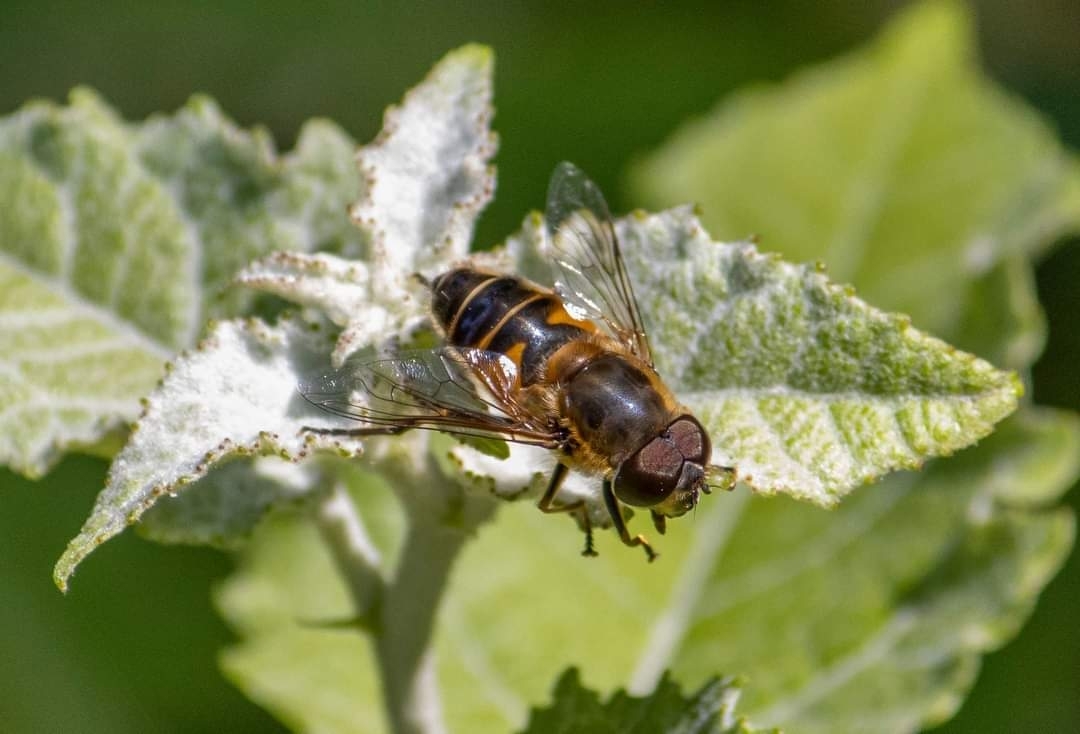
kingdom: Animalia
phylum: Arthropoda
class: Insecta
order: Diptera
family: Syrphidae
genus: Eristalis
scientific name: Eristalis nemorum
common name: Orange-spined drone fly
